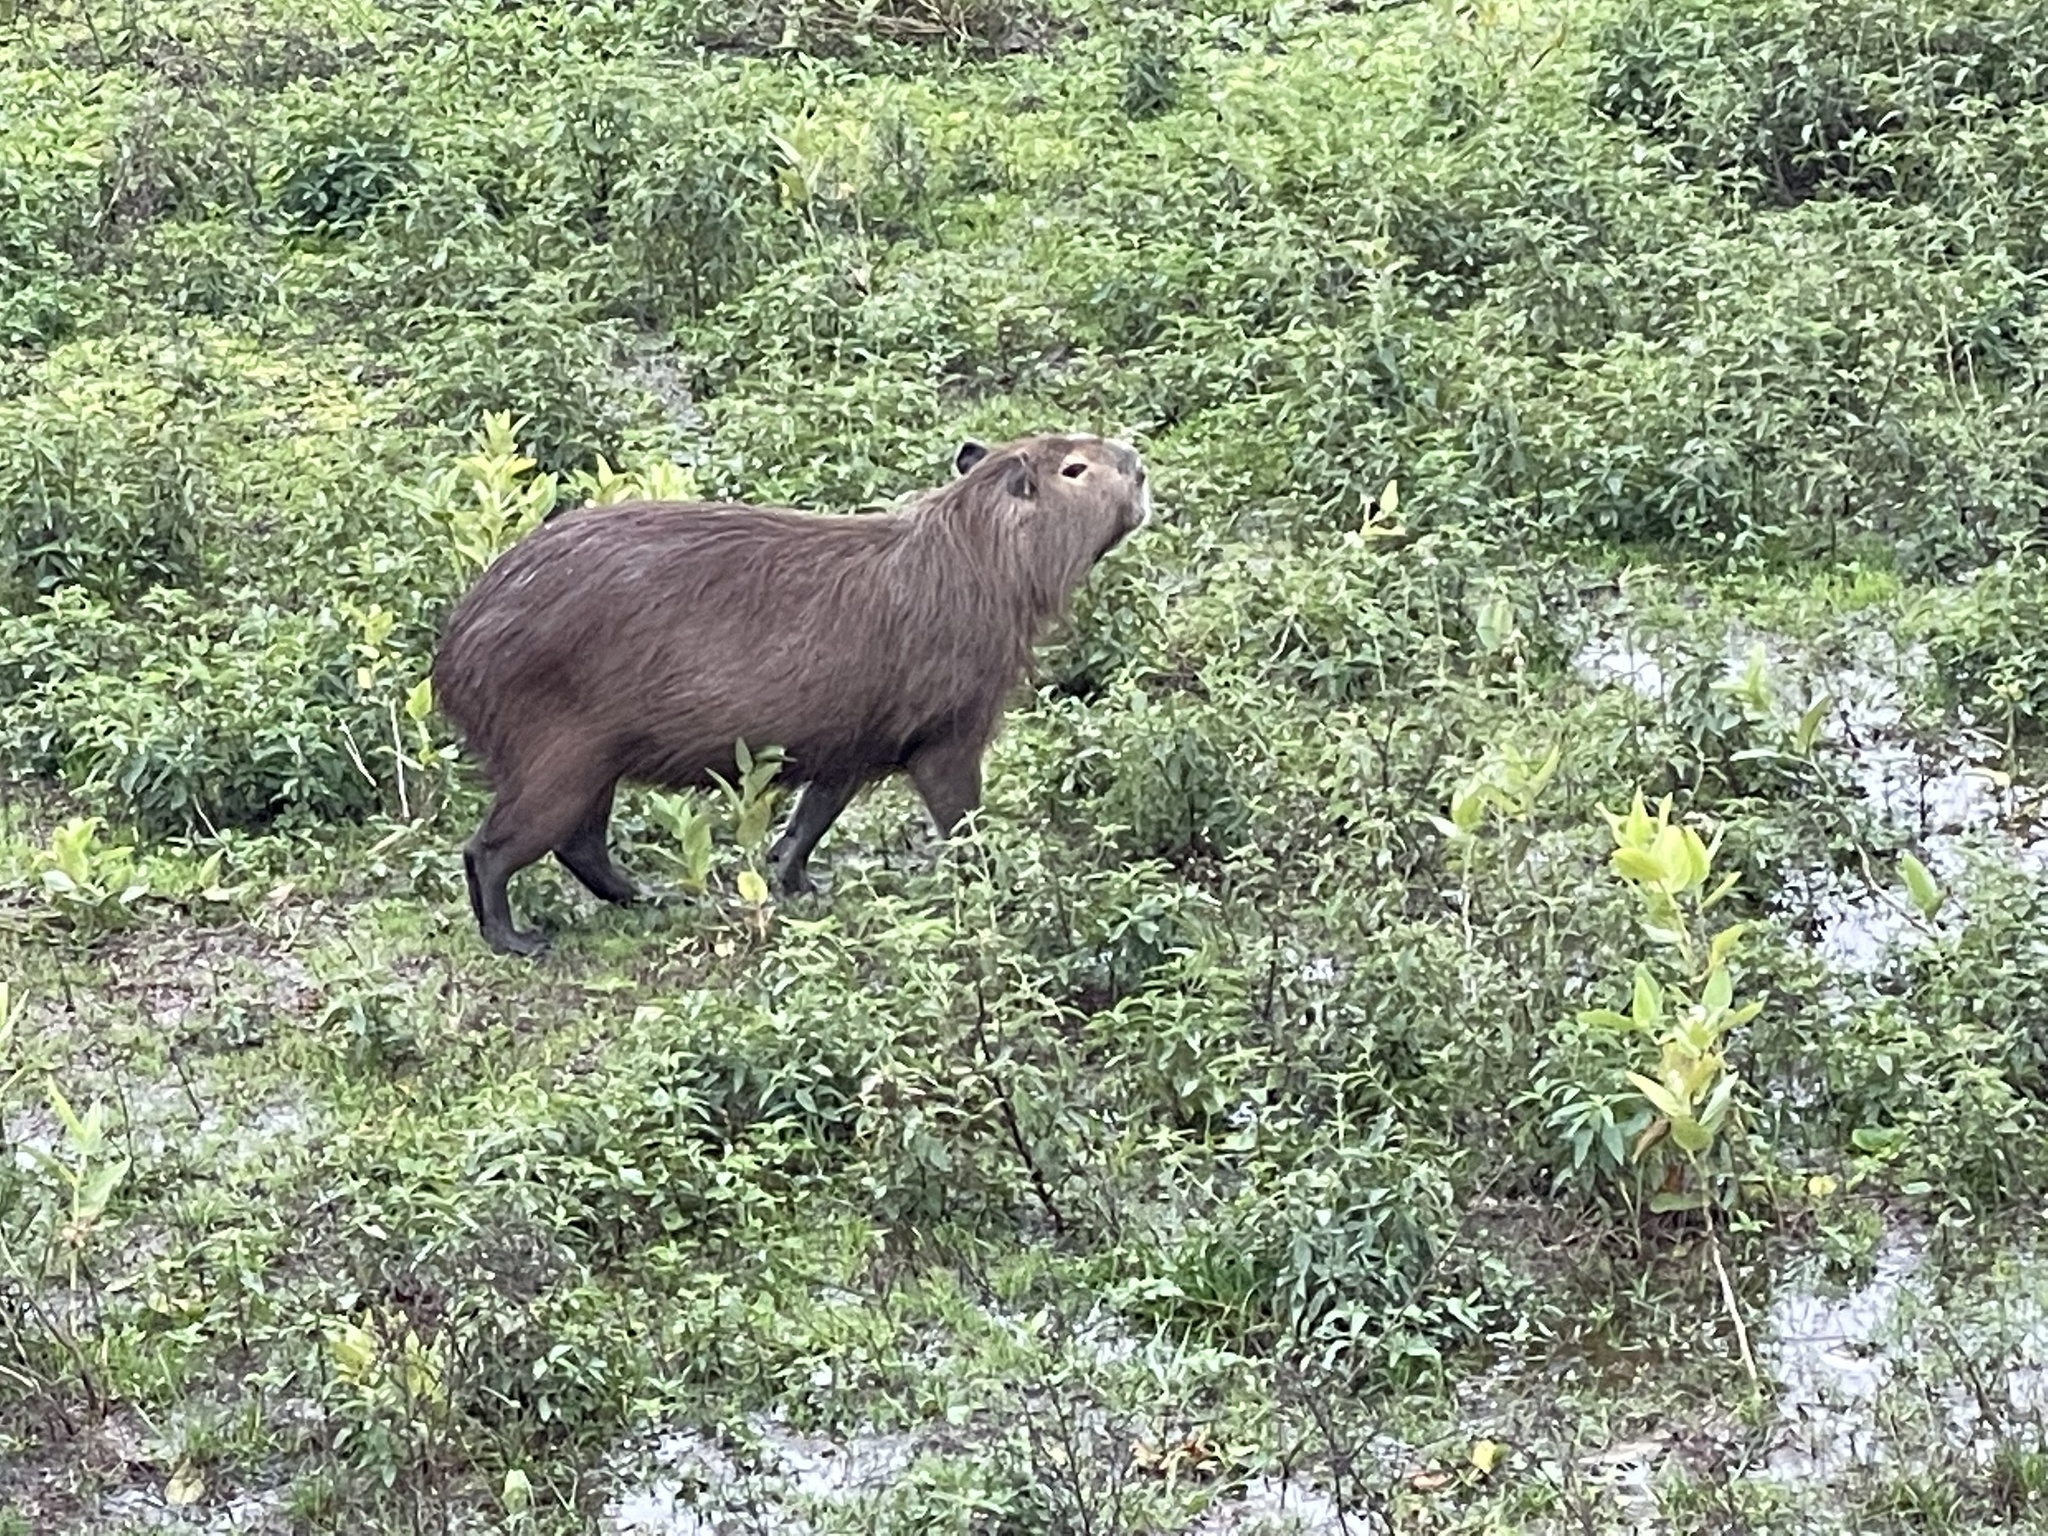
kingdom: Animalia
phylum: Chordata
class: Mammalia
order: Rodentia
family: Caviidae
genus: Hydrochoerus
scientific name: Hydrochoerus hydrochaeris
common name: Capybara
